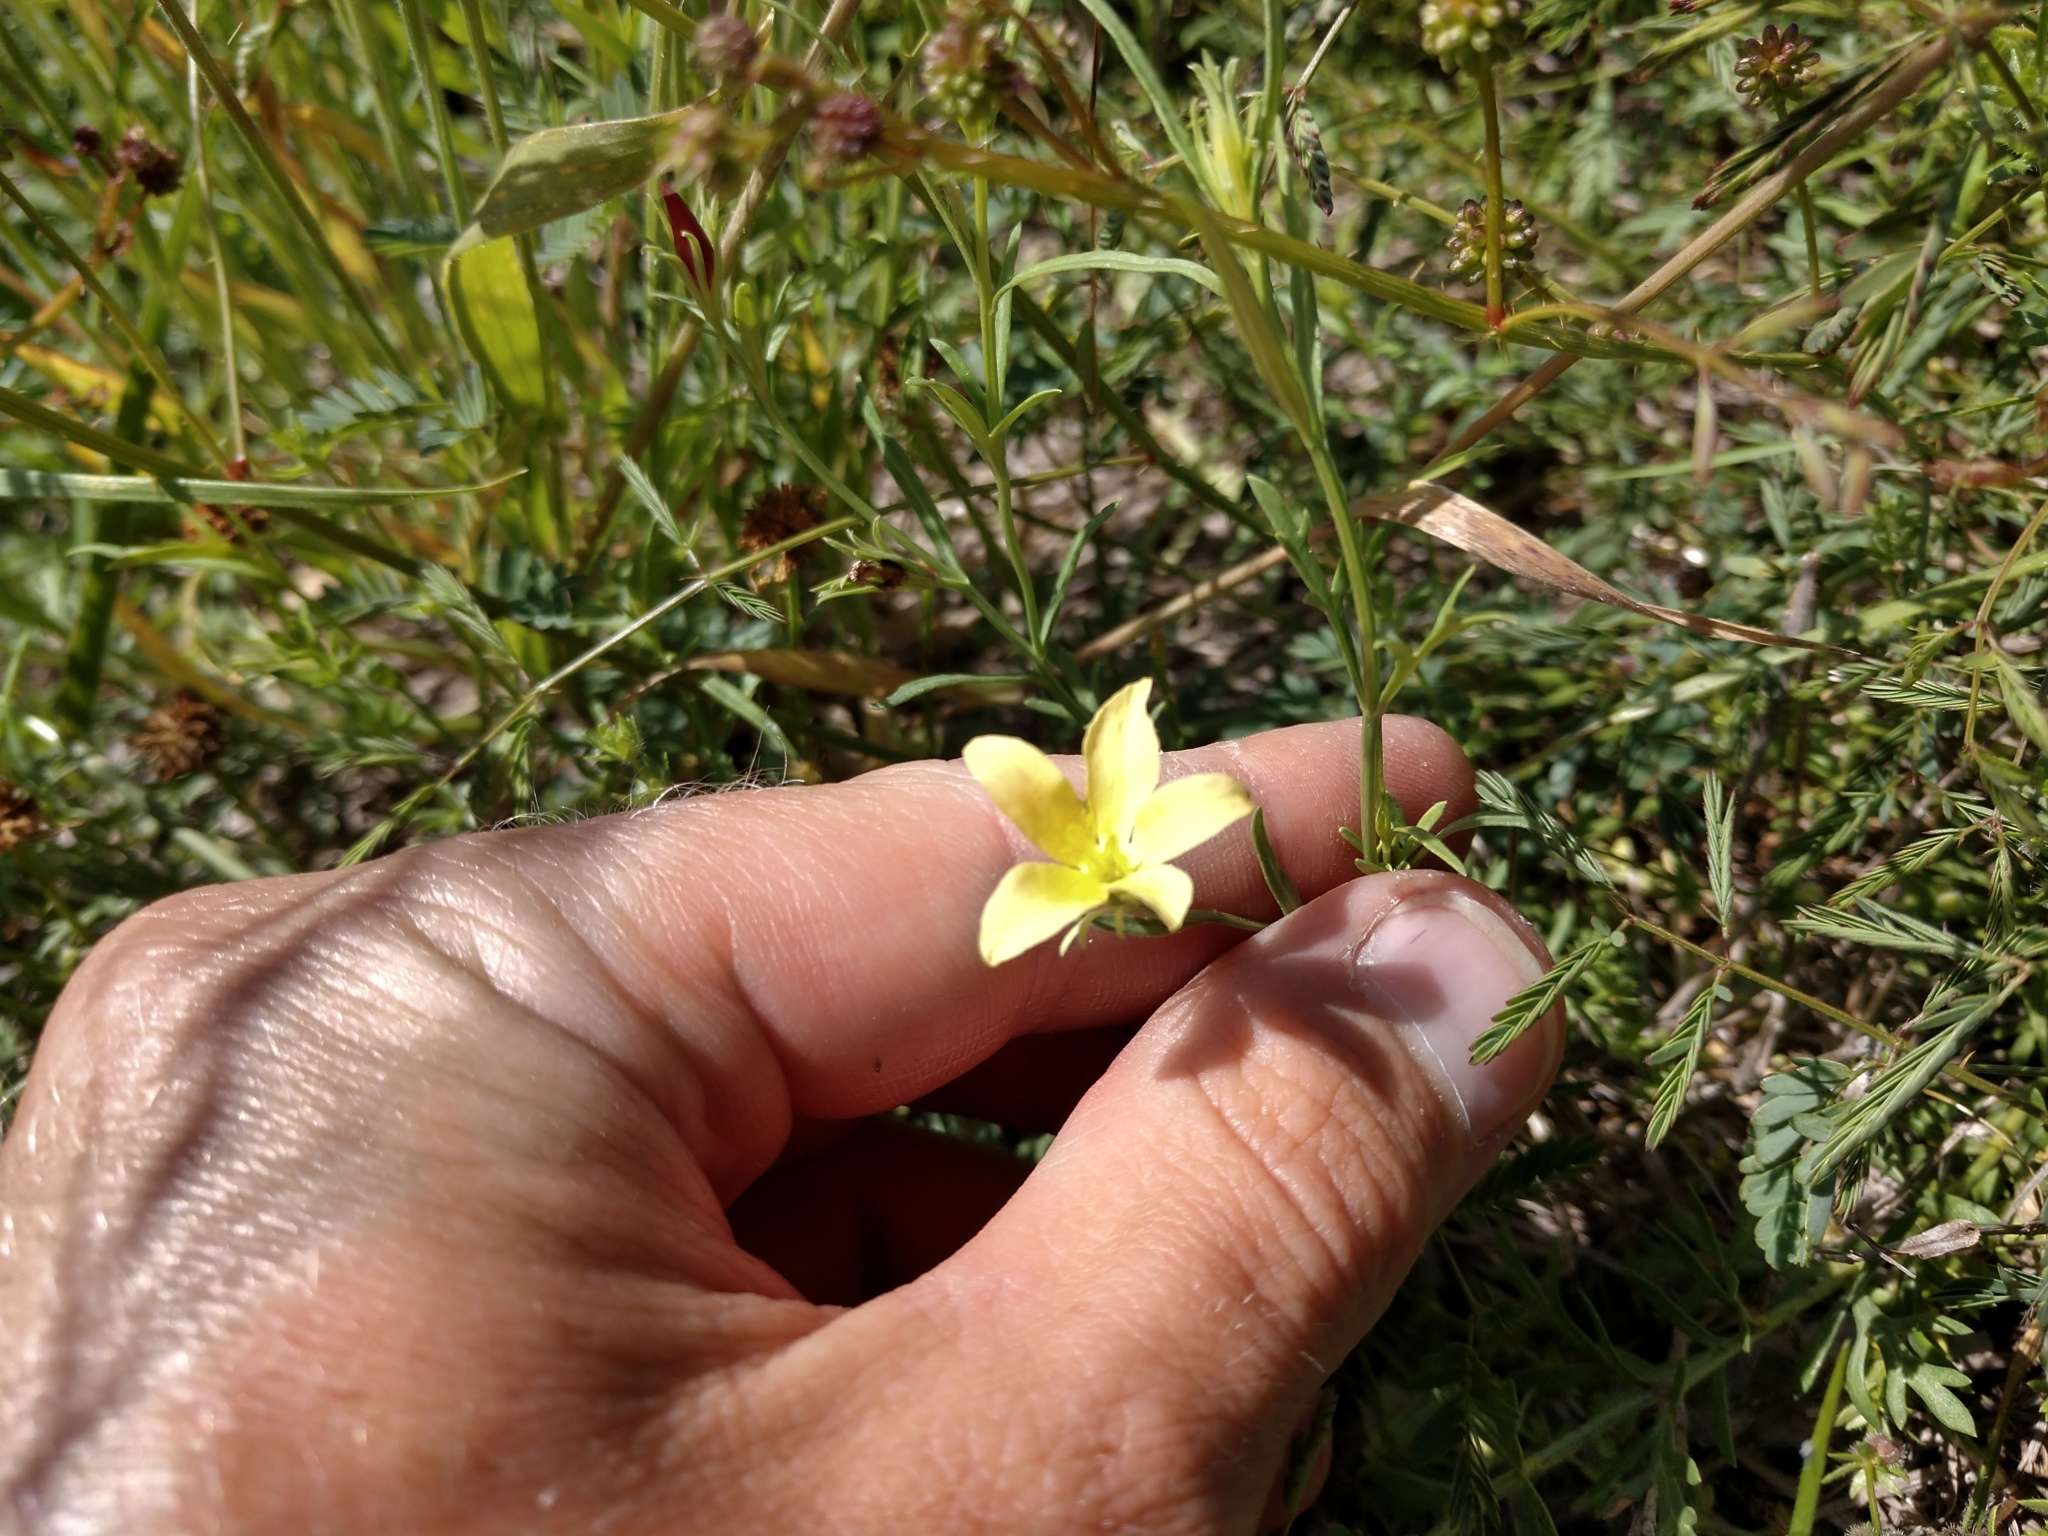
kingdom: Plantae
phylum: Tracheophyta
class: Magnoliopsida
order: Lamiales
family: Oleaceae
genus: Menodora
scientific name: Menodora heterophylla
